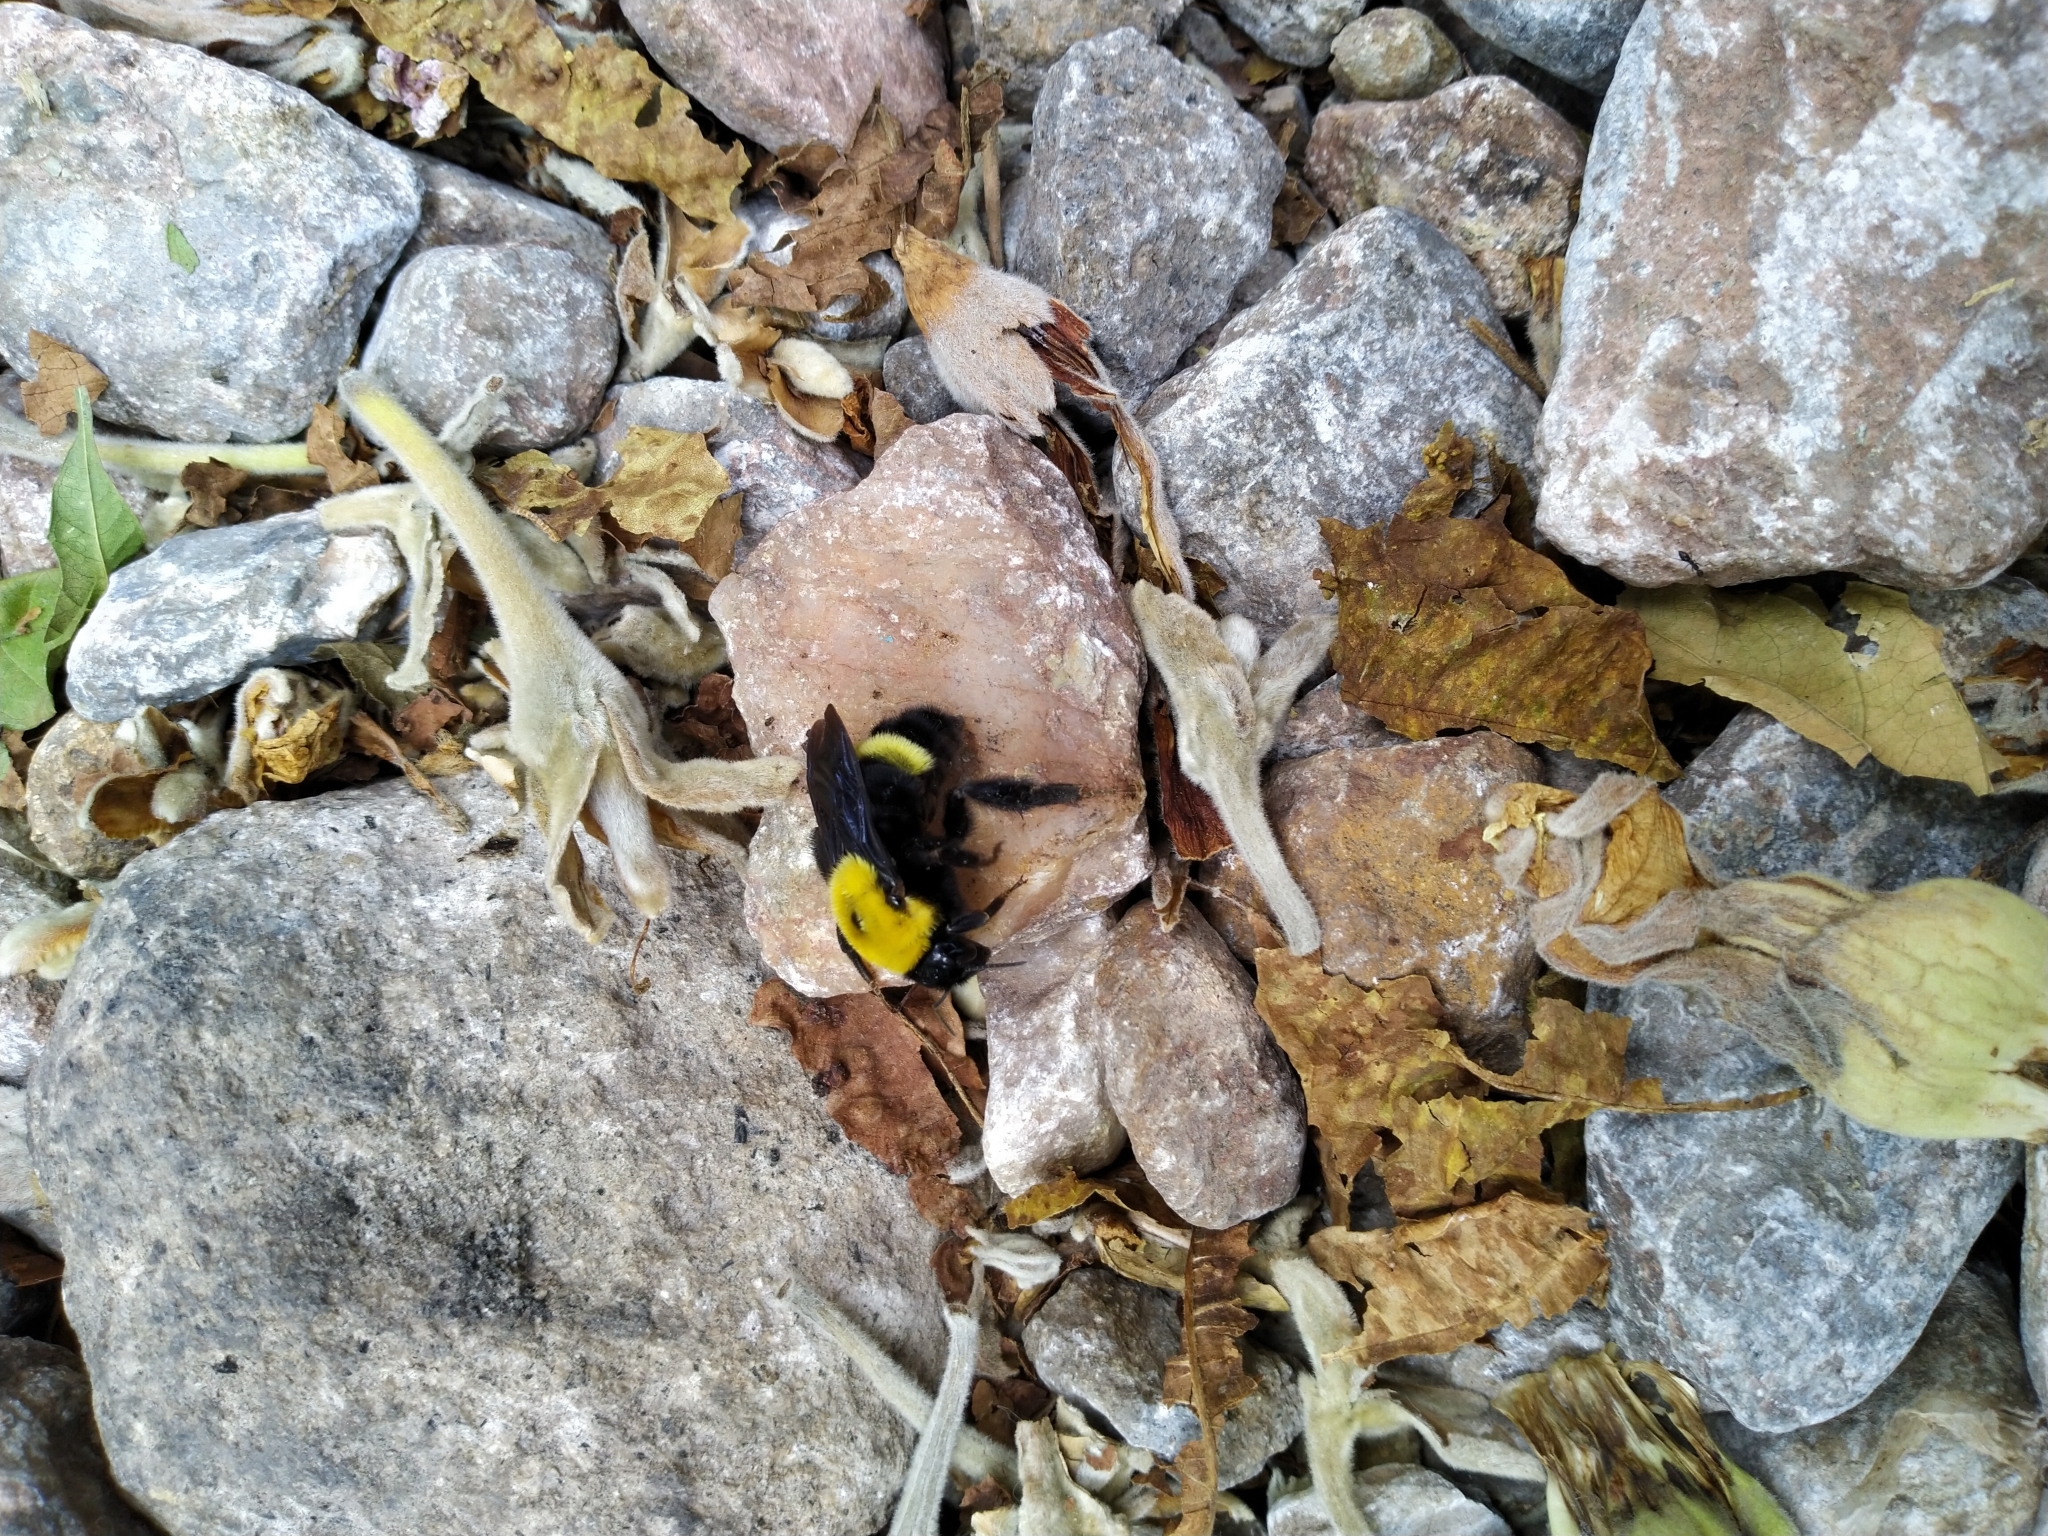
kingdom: Animalia
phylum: Arthropoda
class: Insecta
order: Hymenoptera
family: Apidae
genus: Bombus
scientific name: Bombus steindachneri
